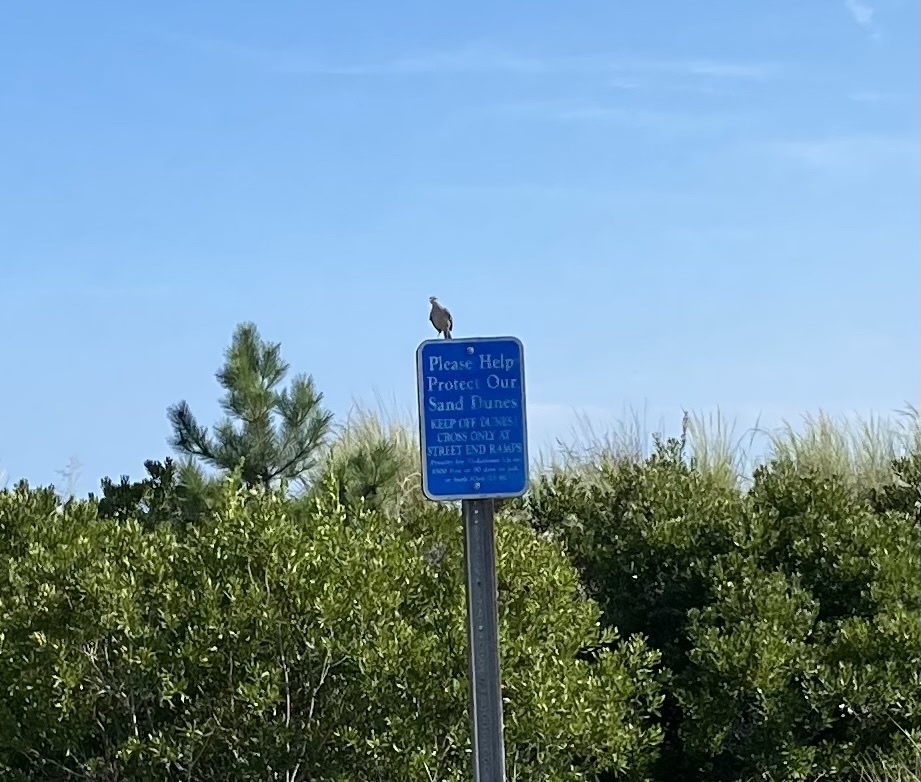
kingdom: Animalia
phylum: Chordata
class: Aves
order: Passeriformes
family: Mimidae
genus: Mimus
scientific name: Mimus polyglottos
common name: Northern mockingbird
